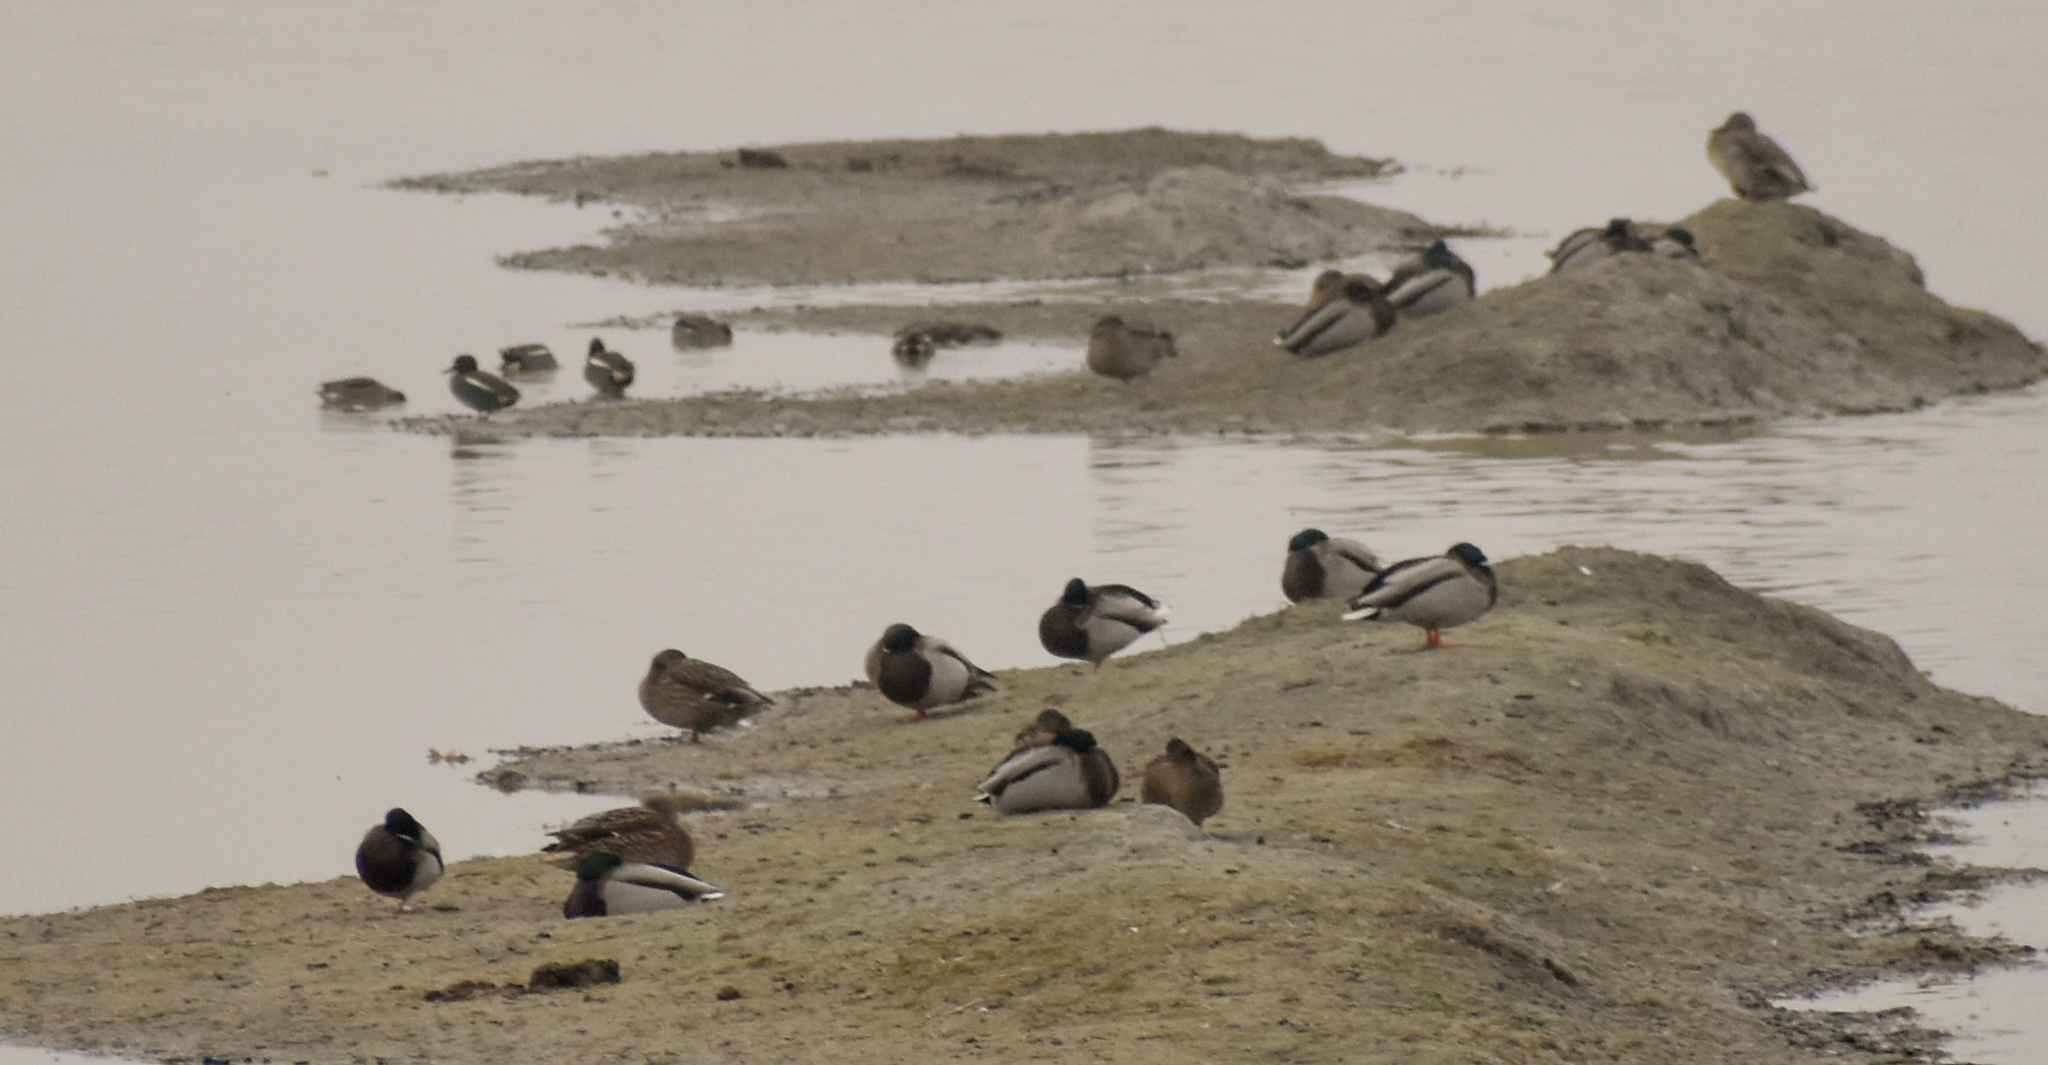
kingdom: Animalia
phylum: Chordata
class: Aves
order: Anseriformes
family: Anatidae
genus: Anas
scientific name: Anas platyrhynchos
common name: Mallard
